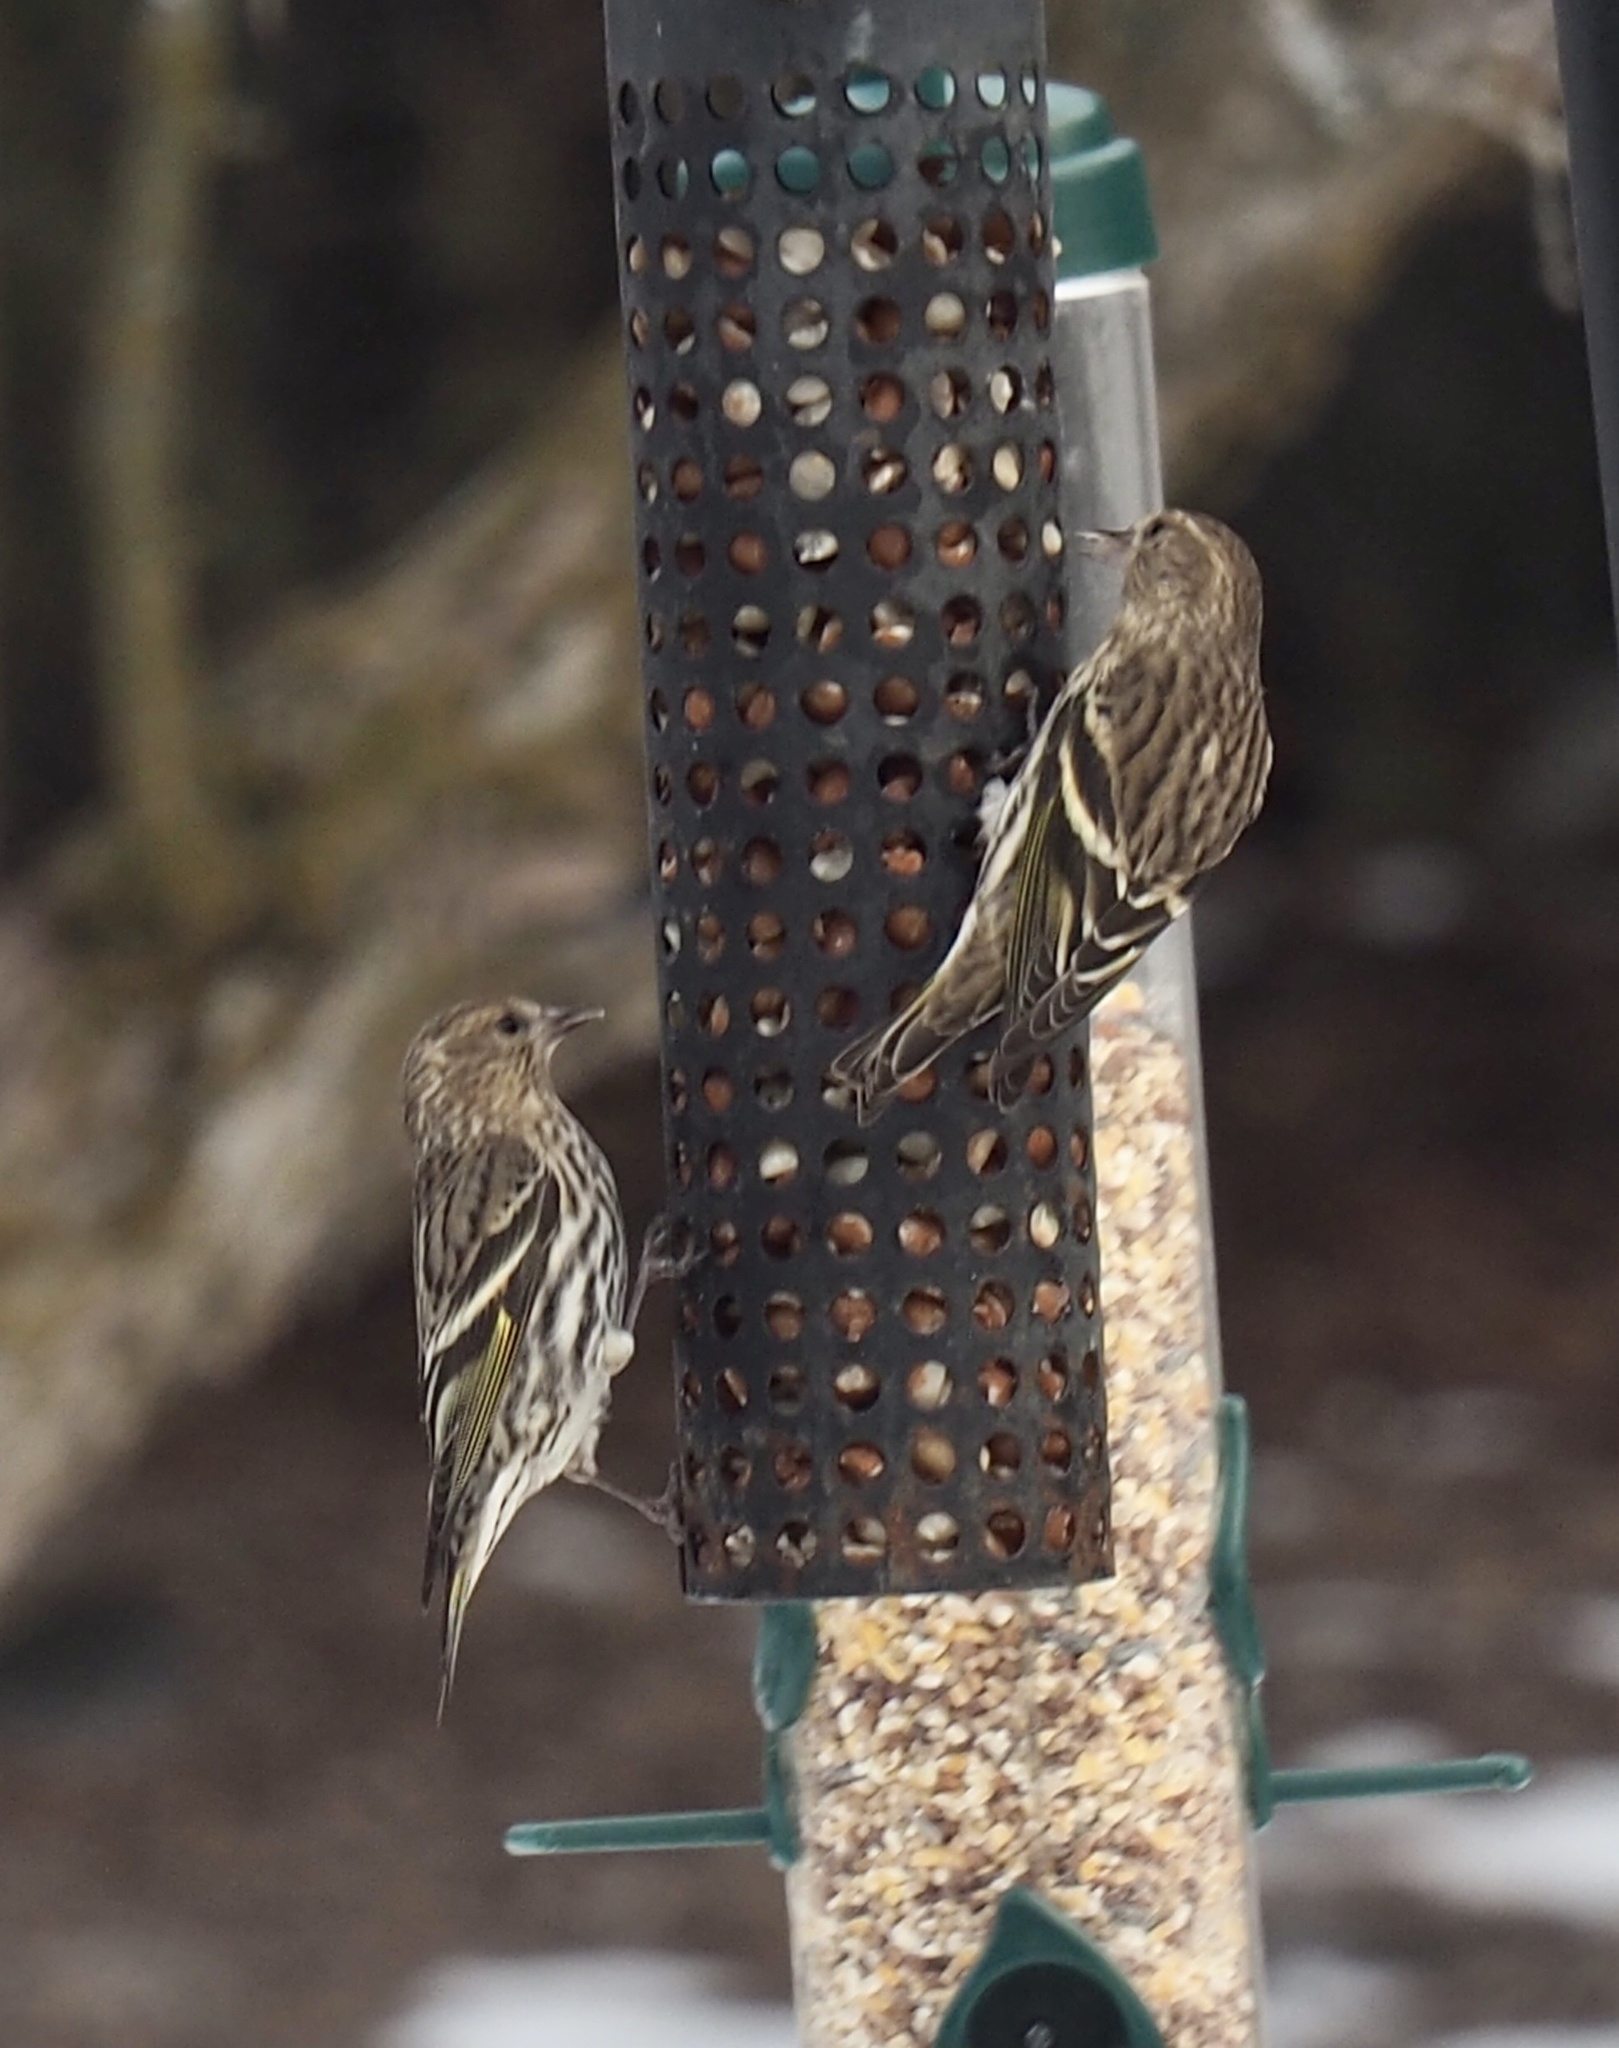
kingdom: Animalia
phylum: Chordata
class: Aves
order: Passeriformes
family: Fringillidae
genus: Spinus
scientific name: Spinus pinus
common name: Pine siskin
